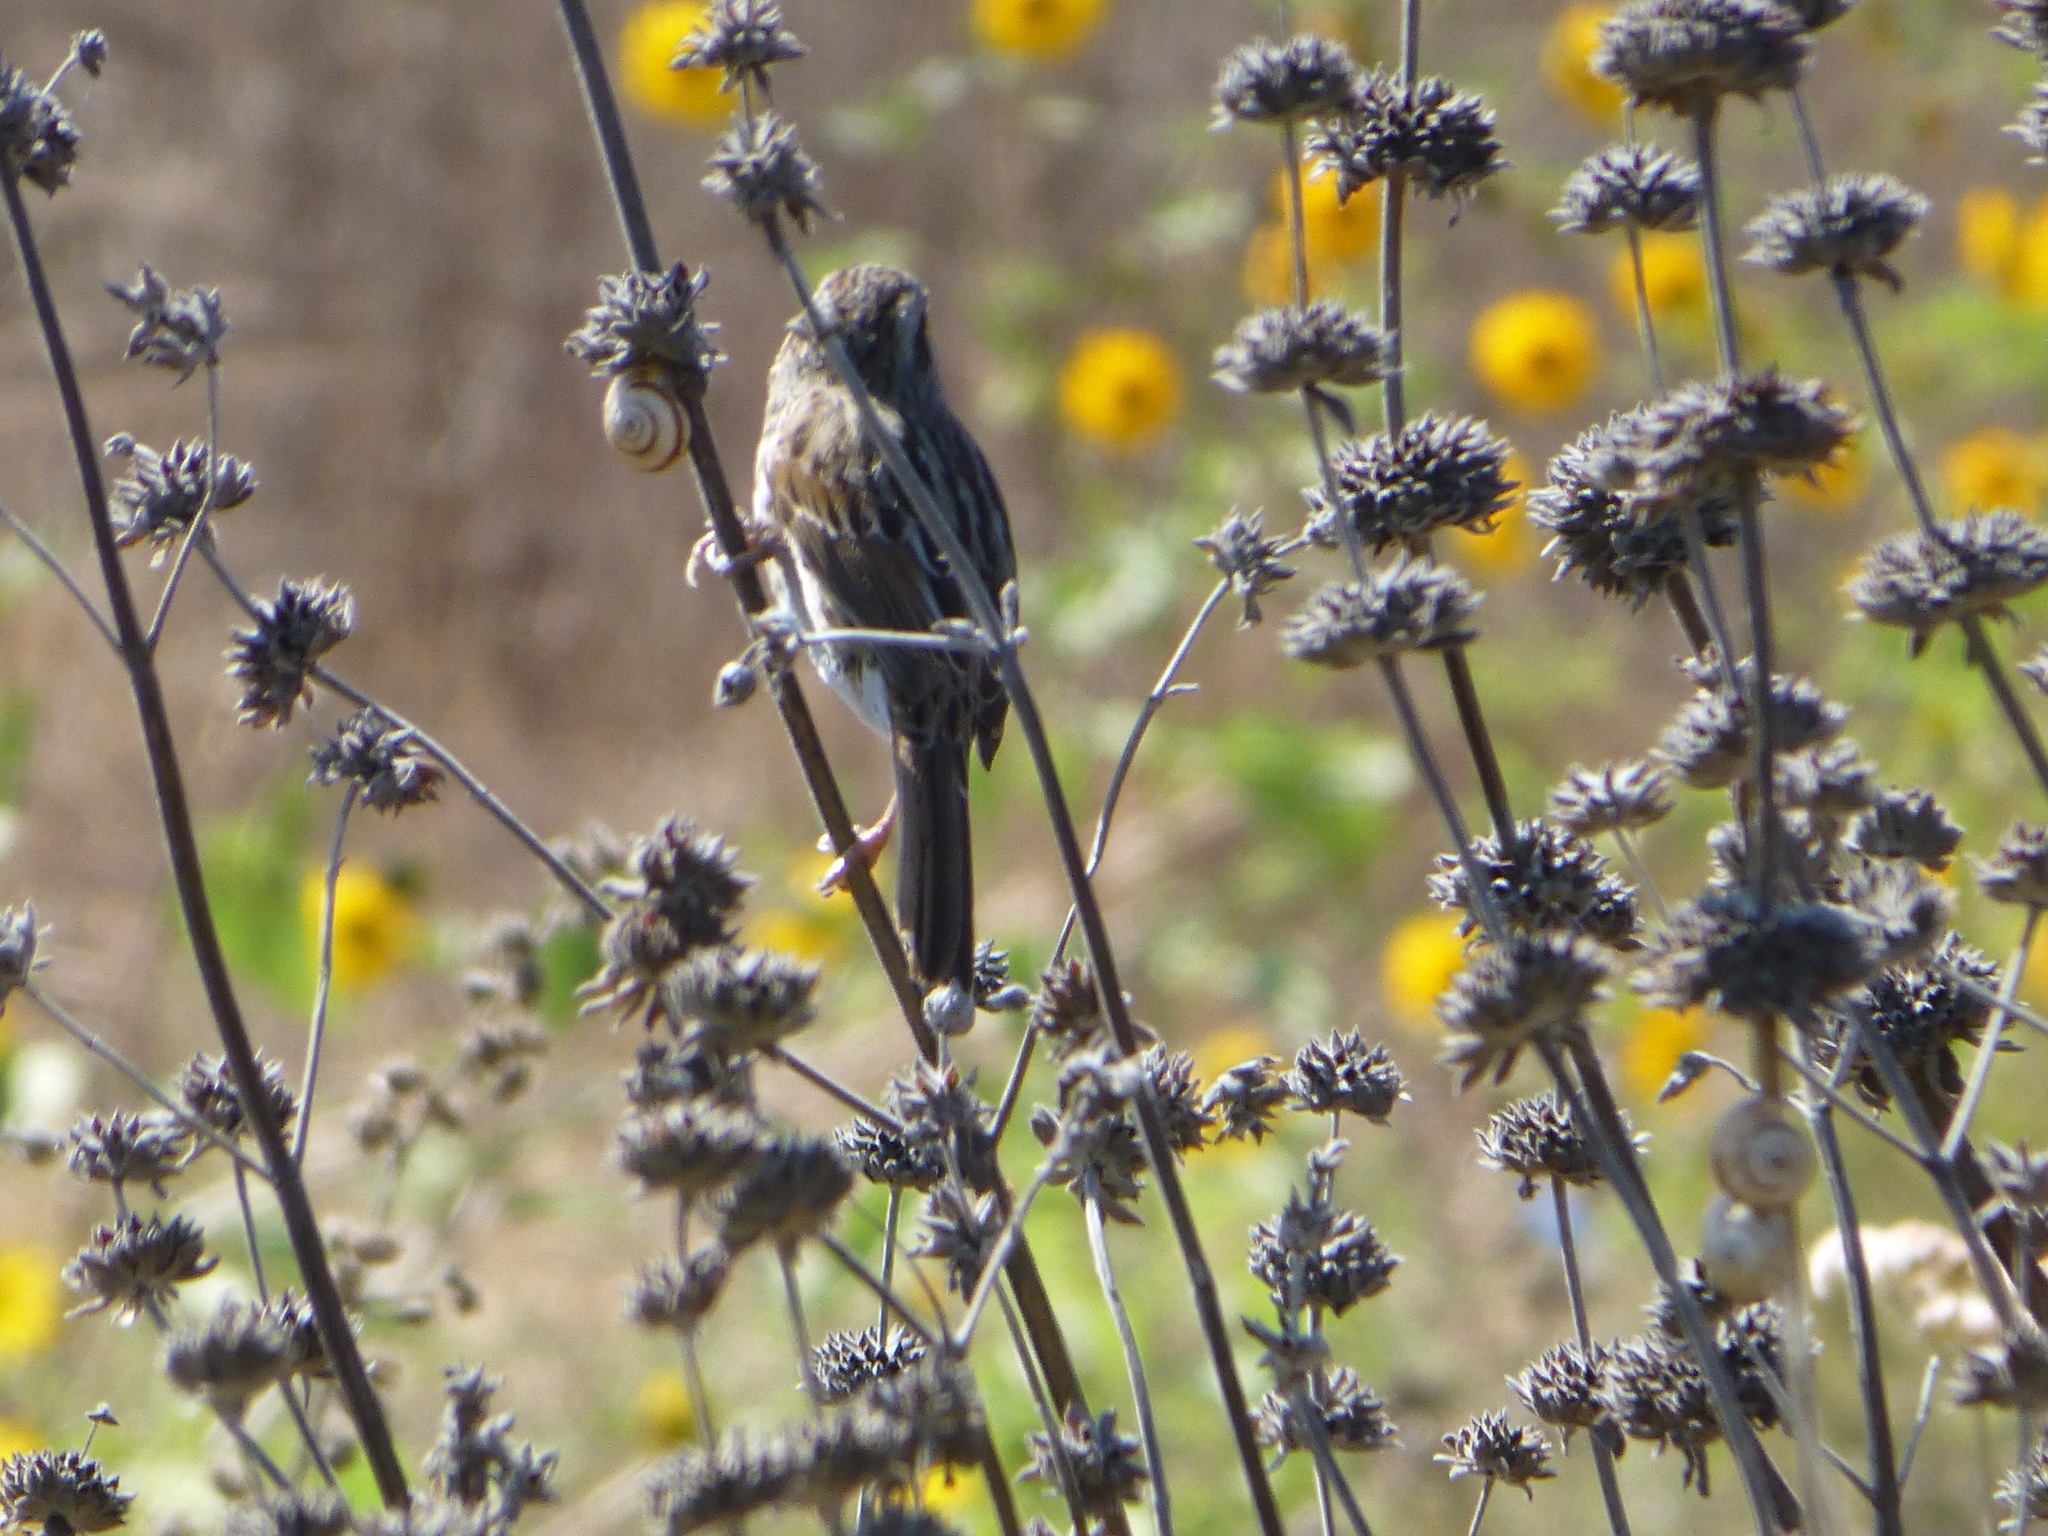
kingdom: Animalia
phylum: Chordata
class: Aves
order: Passeriformes
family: Passerellidae
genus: Melospiza
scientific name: Melospiza melodia
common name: Song sparrow
